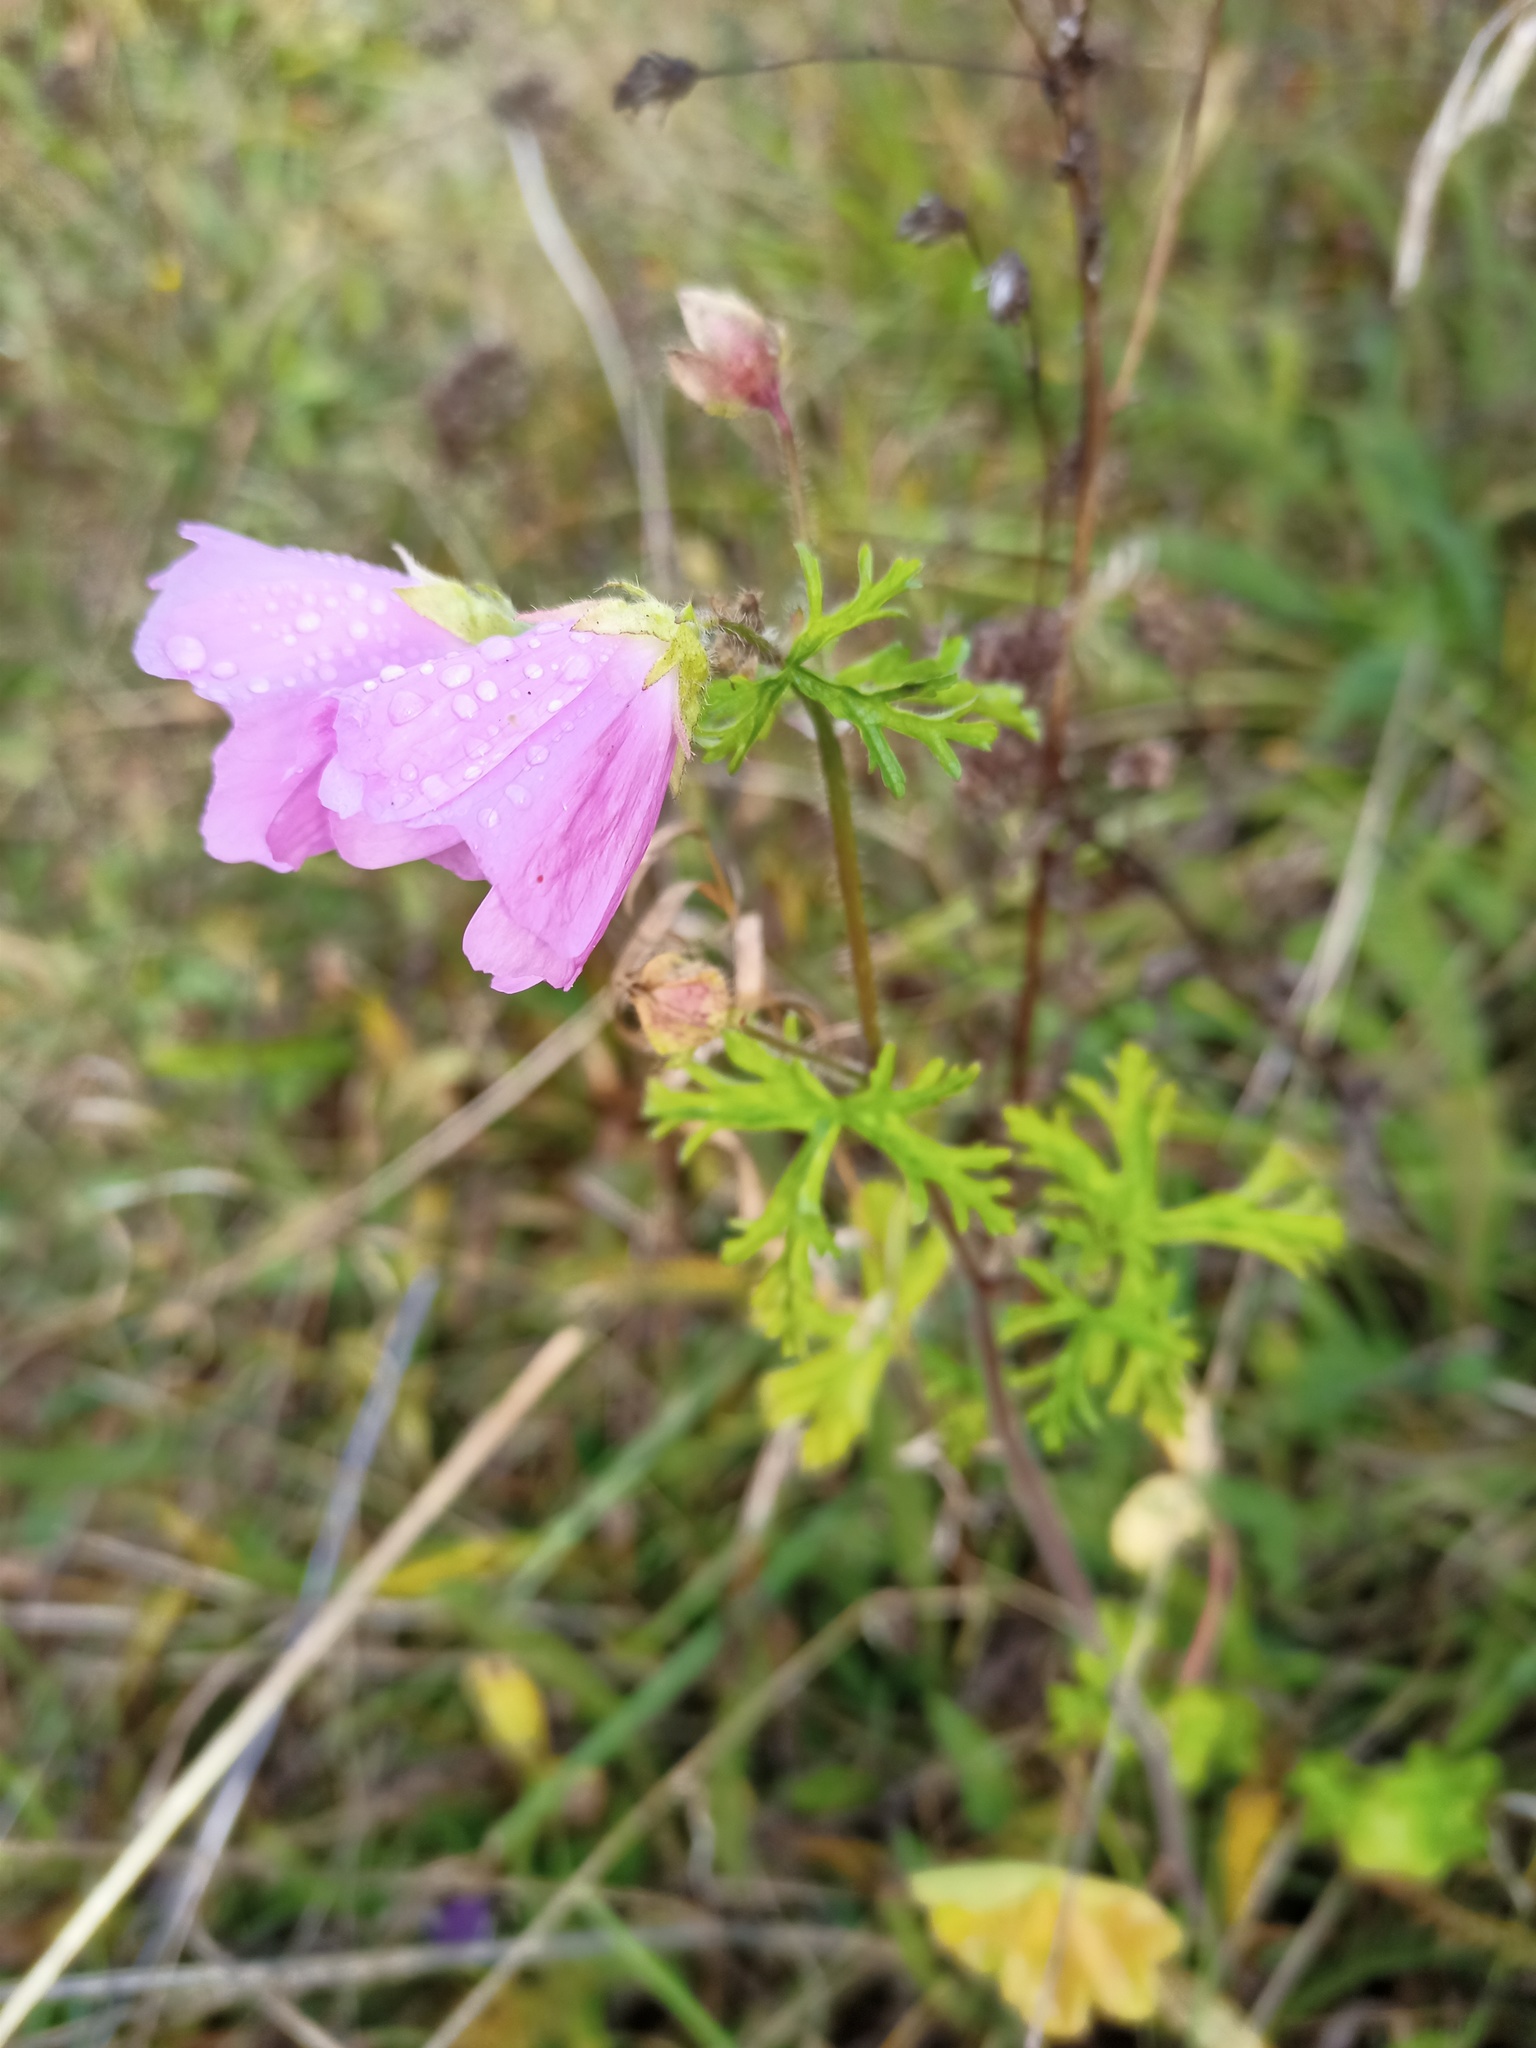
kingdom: Plantae
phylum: Tracheophyta
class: Magnoliopsida
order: Malvales
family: Malvaceae
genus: Malva
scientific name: Malva moschata
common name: Musk mallow
